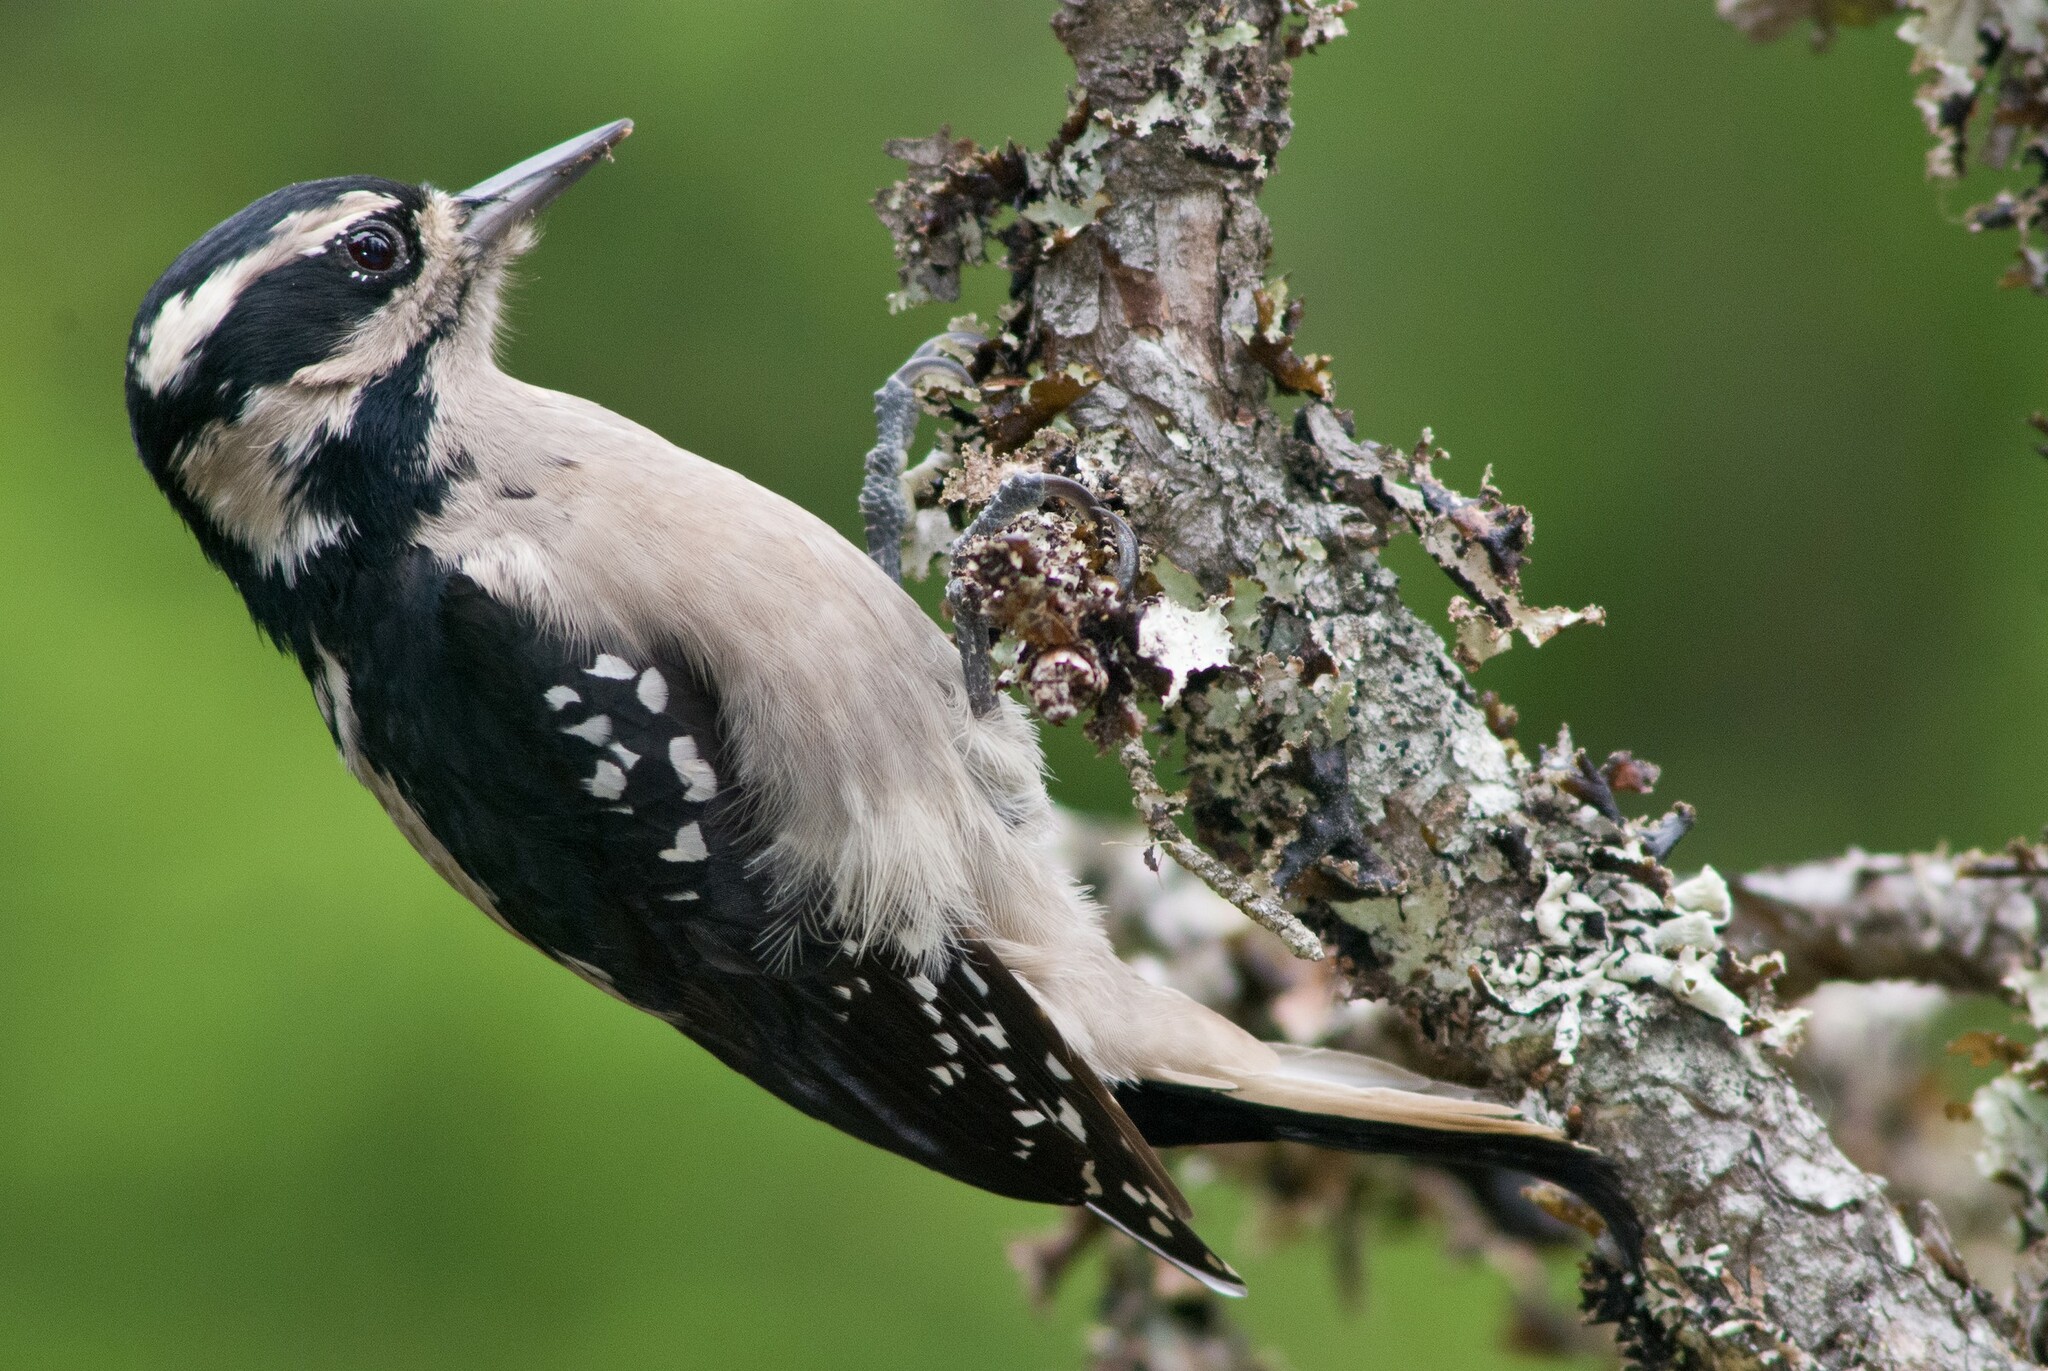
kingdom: Animalia
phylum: Chordata
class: Aves
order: Piciformes
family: Picidae
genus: Leuconotopicus
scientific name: Leuconotopicus villosus
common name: Hairy woodpecker
